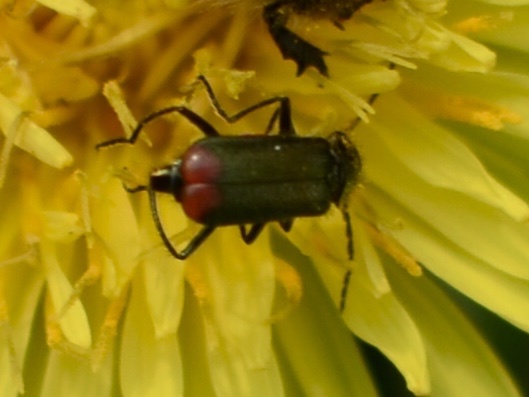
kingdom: Animalia
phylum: Arthropoda
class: Insecta
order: Coleoptera
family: Melyridae
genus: Malachius
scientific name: Malachius bipustulatus
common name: Malachite beetle
